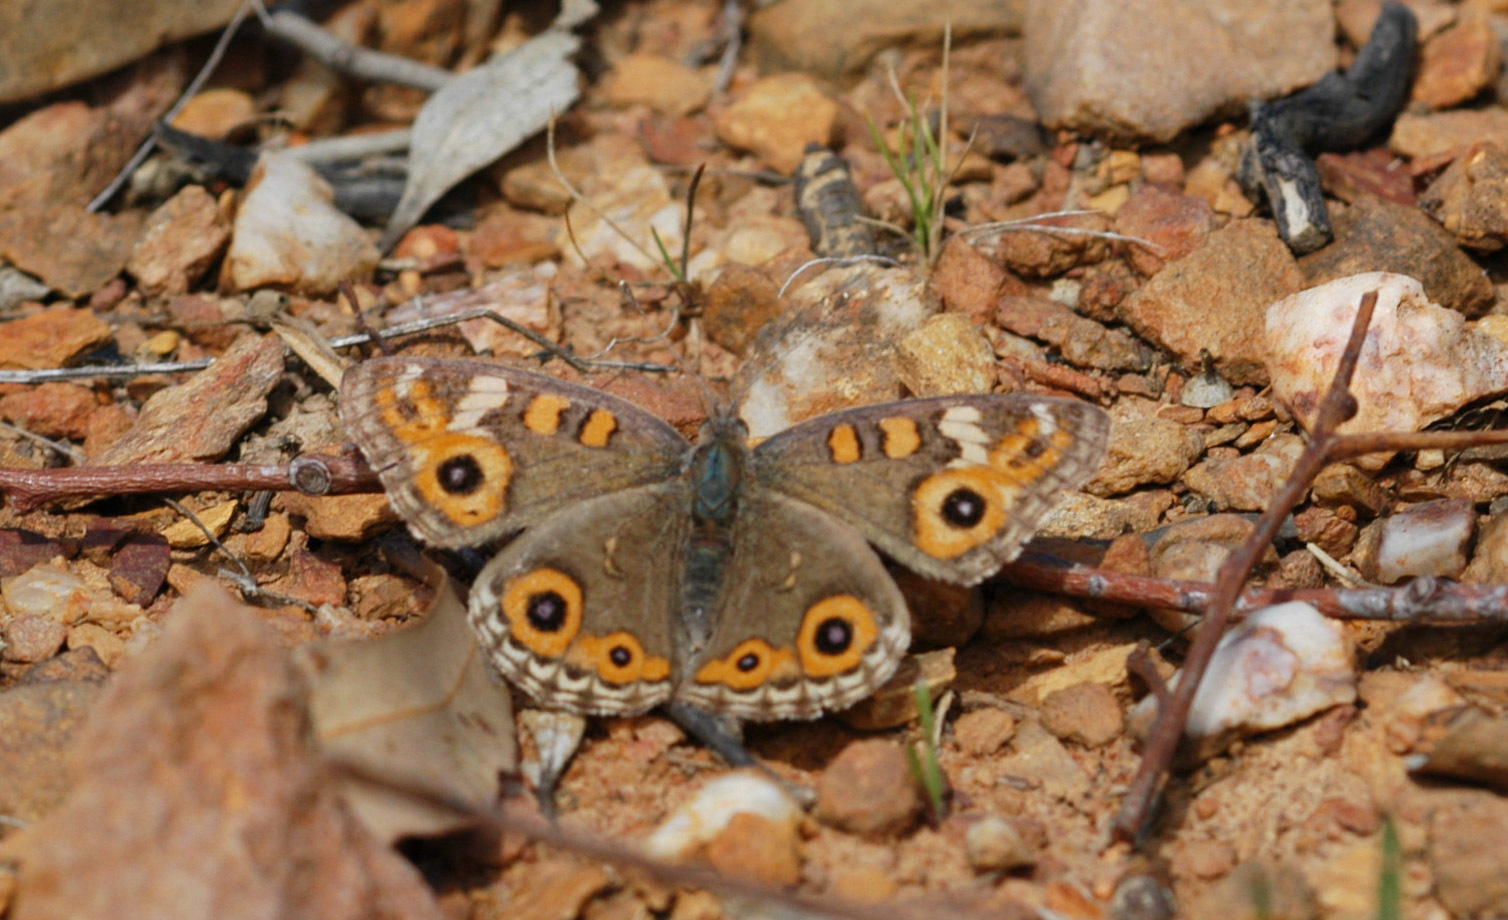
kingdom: Animalia
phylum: Arthropoda
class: Insecta
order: Lepidoptera
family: Nymphalidae
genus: Junonia
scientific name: Junonia villida
